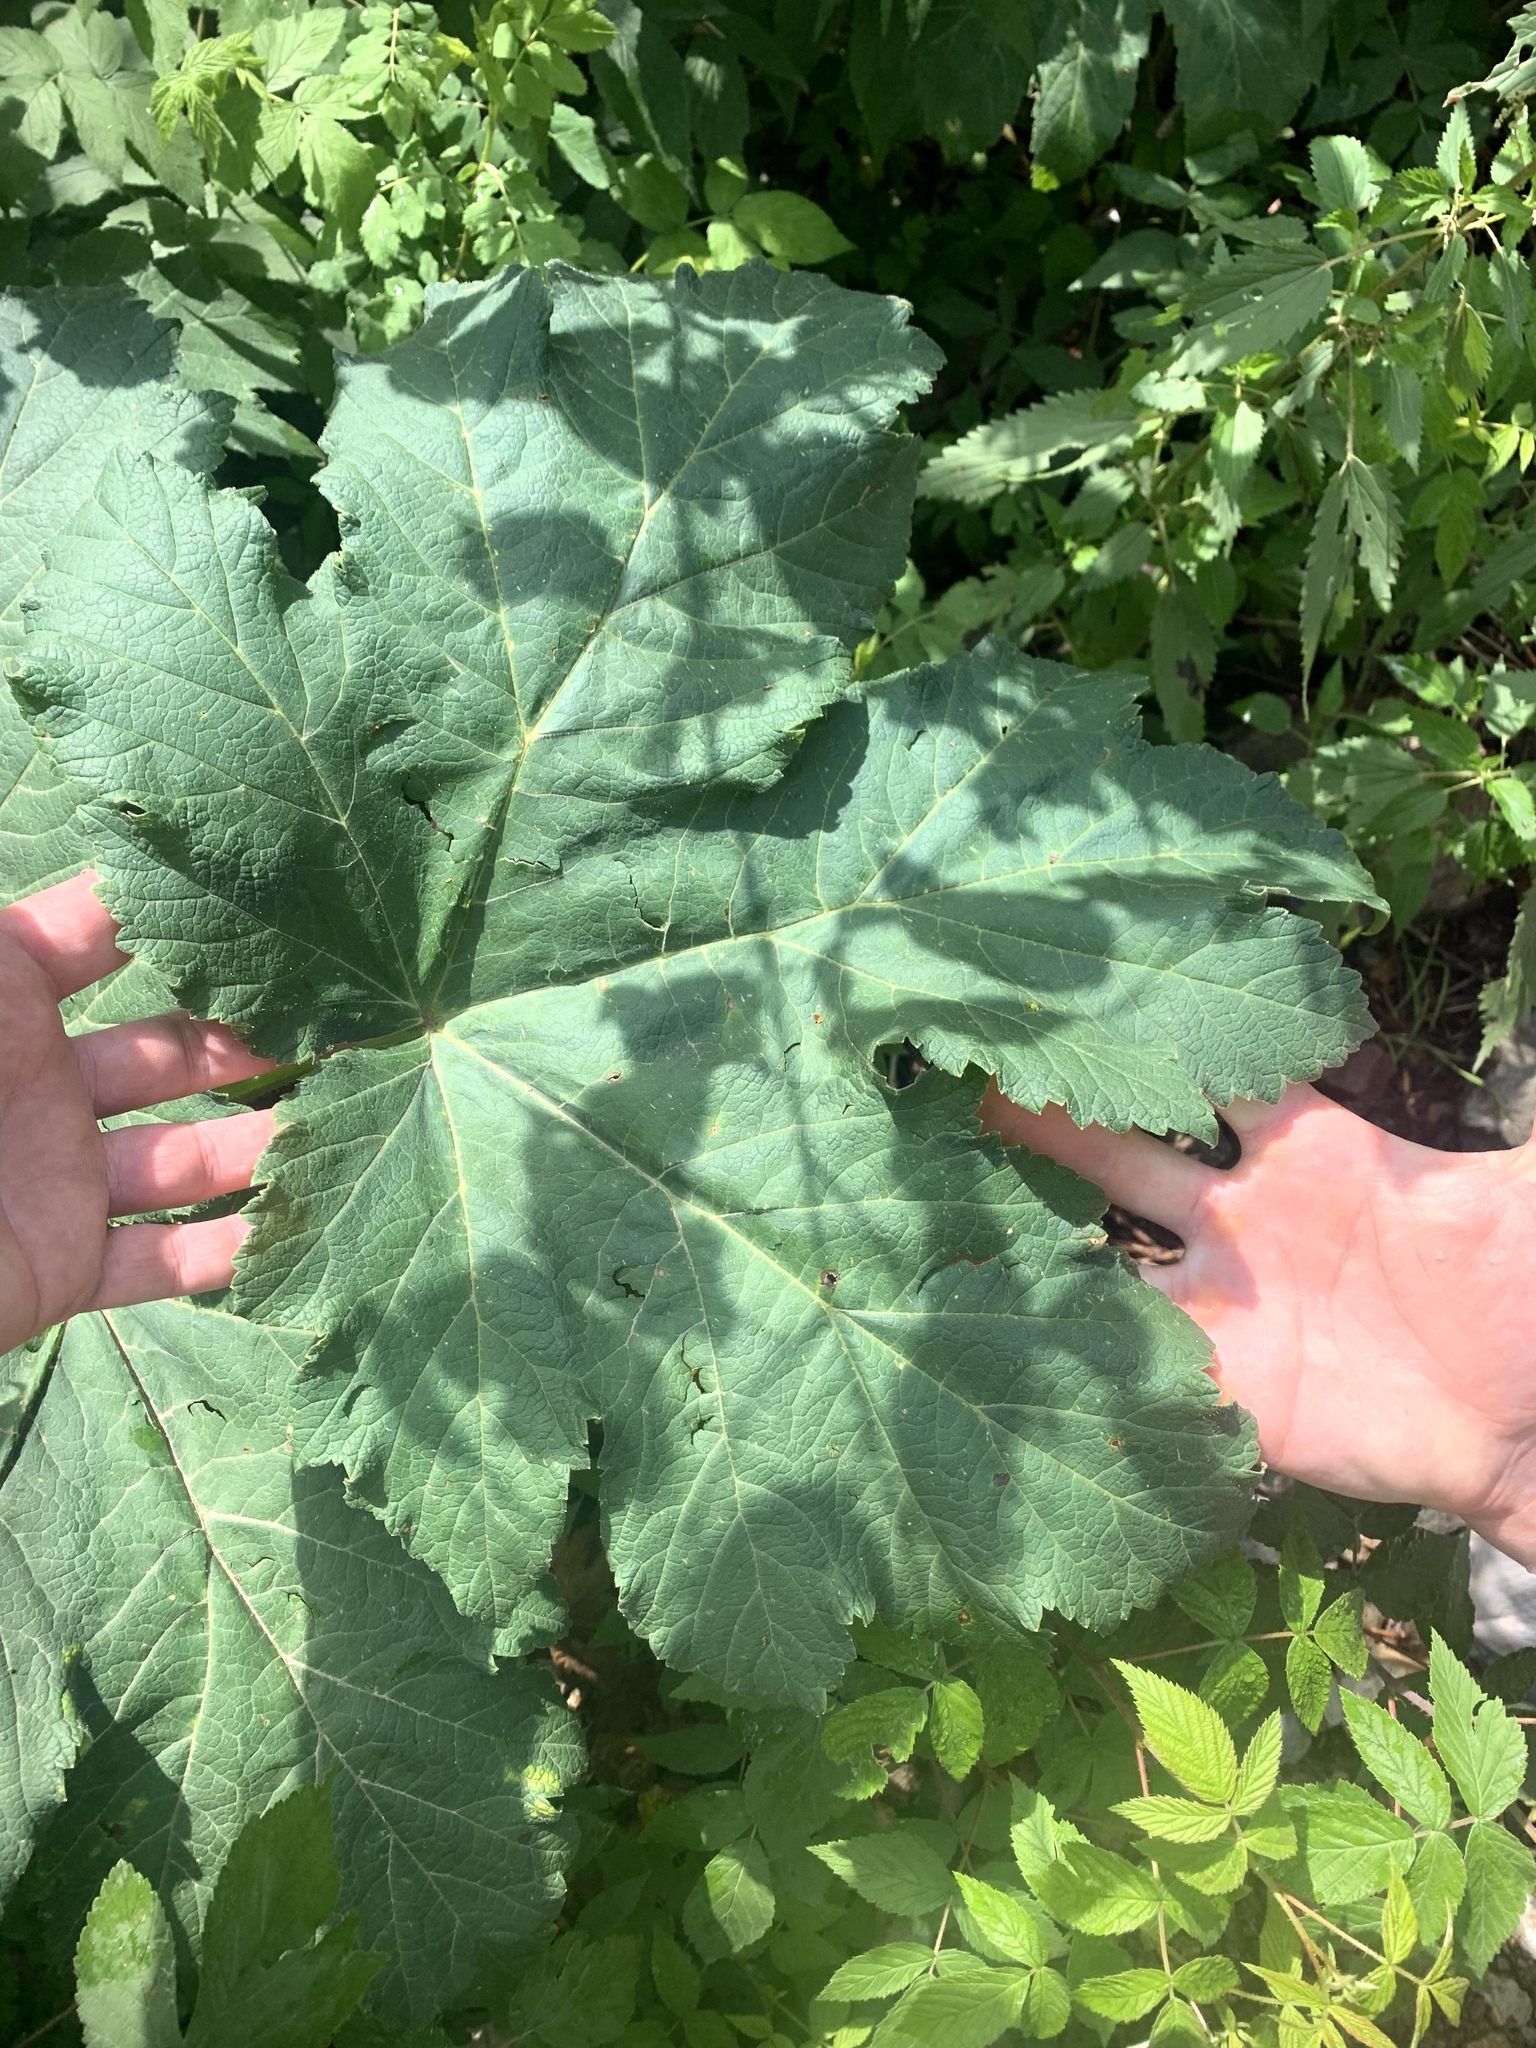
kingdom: Plantae
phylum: Tracheophyta
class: Magnoliopsida
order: Apiales
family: Apiaceae
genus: Heracleum
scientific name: Heracleum maximum
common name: American cow parsnip
